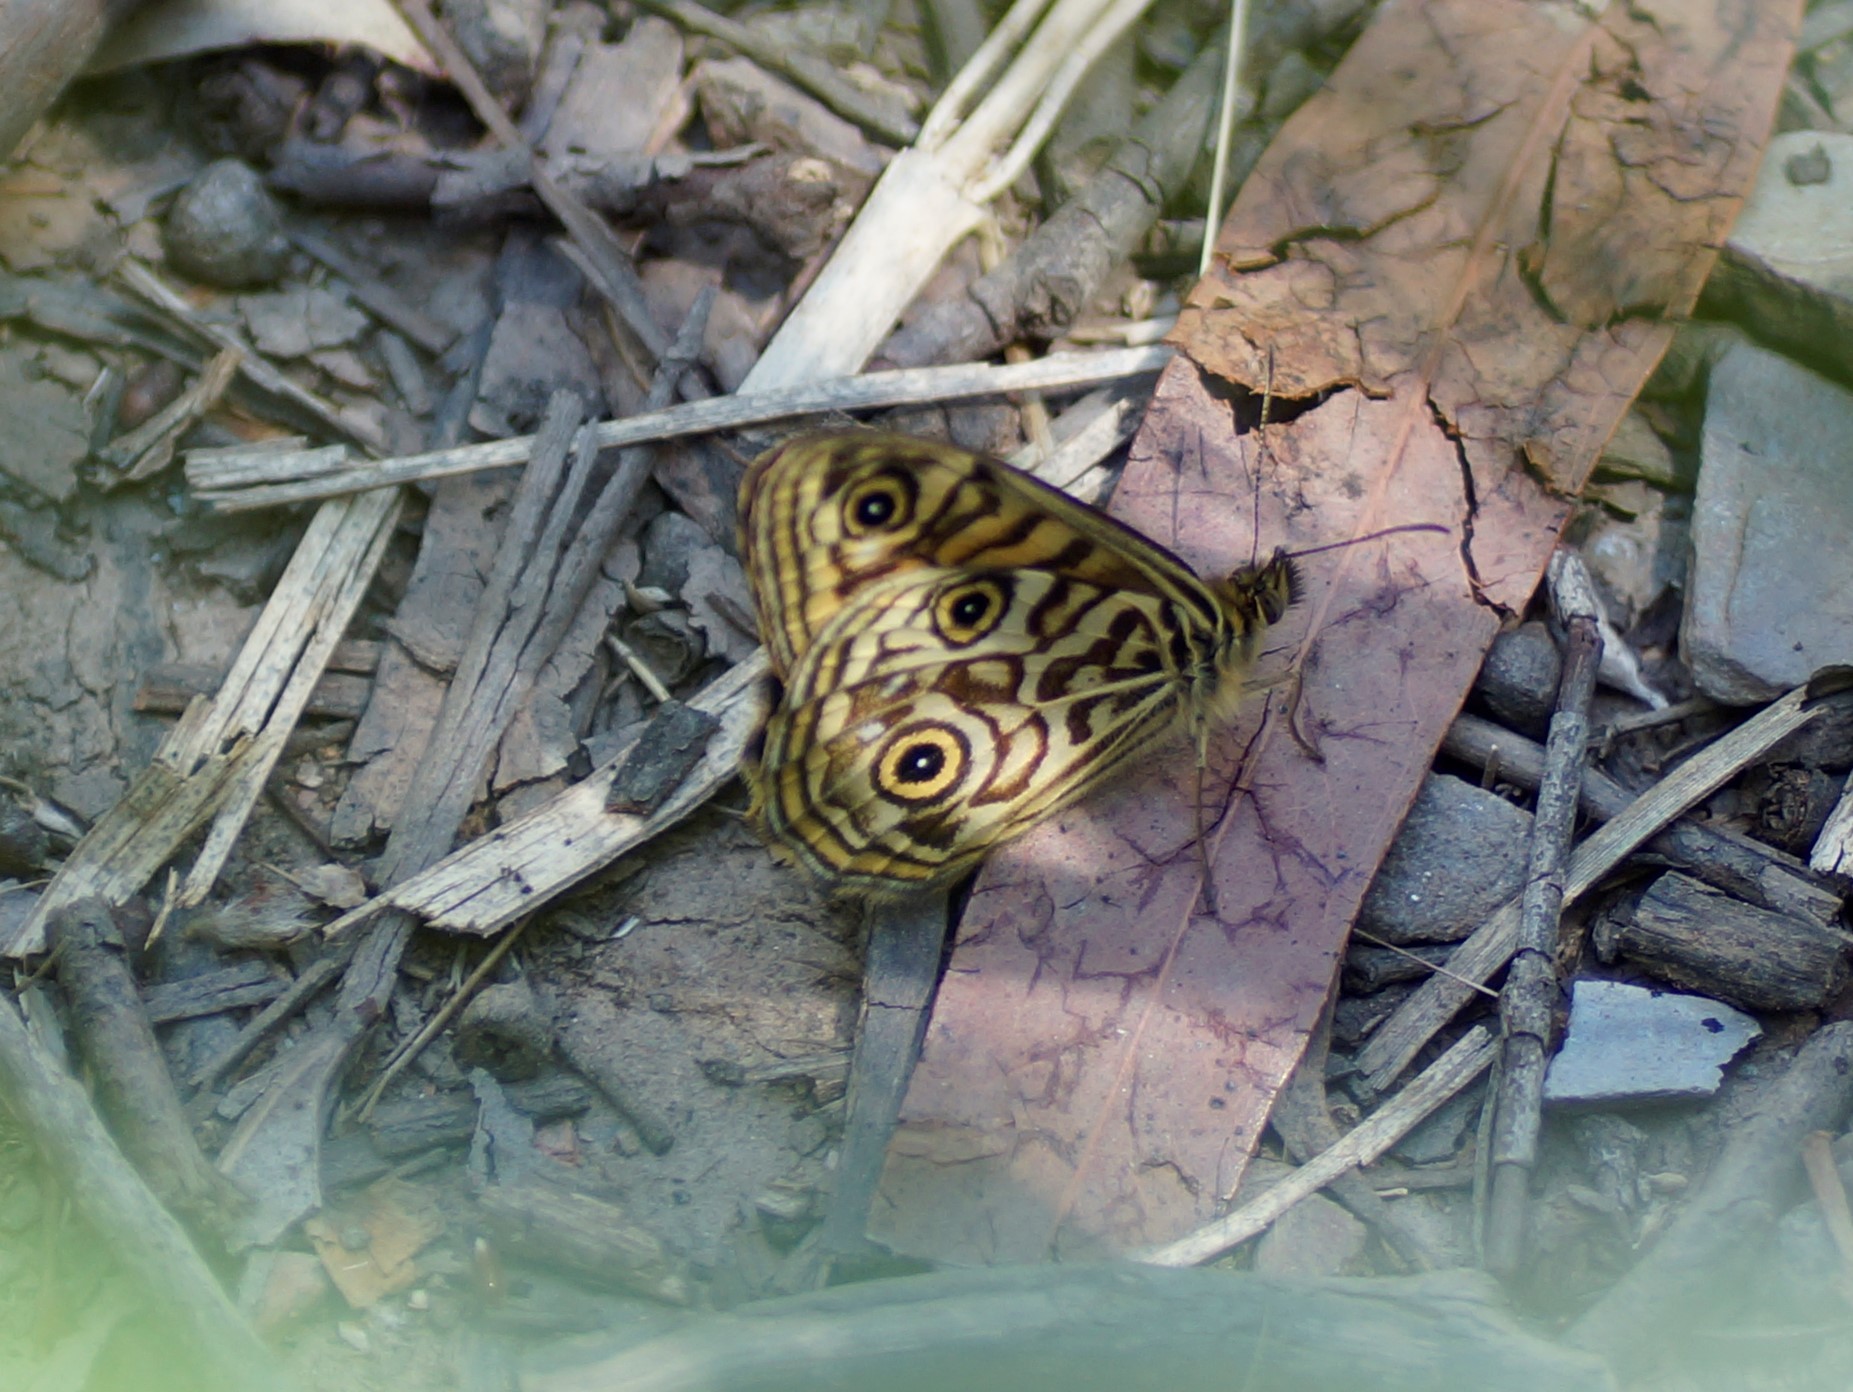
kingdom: Animalia
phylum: Arthropoda
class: Insecta
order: Lepidoptera
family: Nymphalidae
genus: Geitoneura
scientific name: Geitoneura acantha
